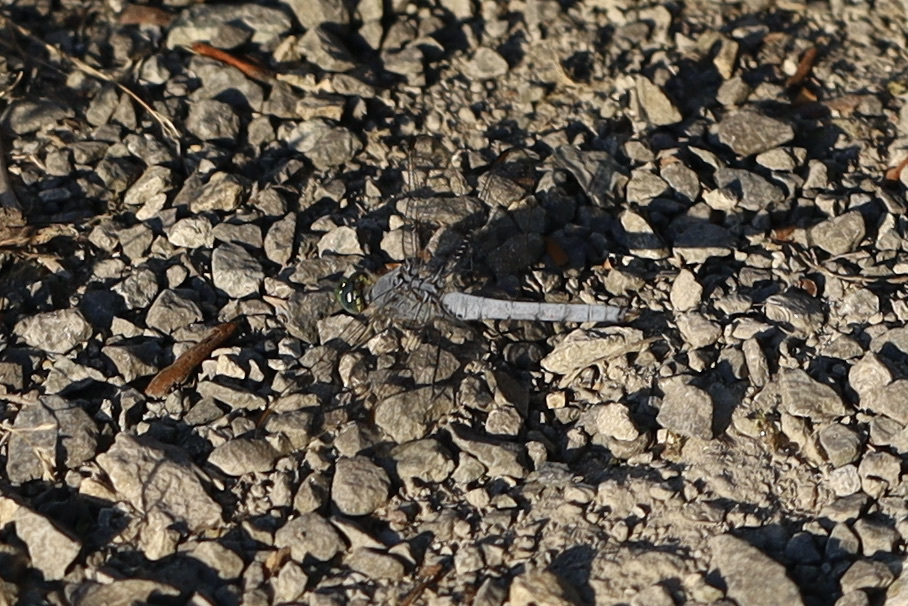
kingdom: Animalia
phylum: Arthropoda
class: Insecta
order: Odonata
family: Libellulidae
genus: Erythemis
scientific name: Erythemis collocata
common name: Western pondhawk
